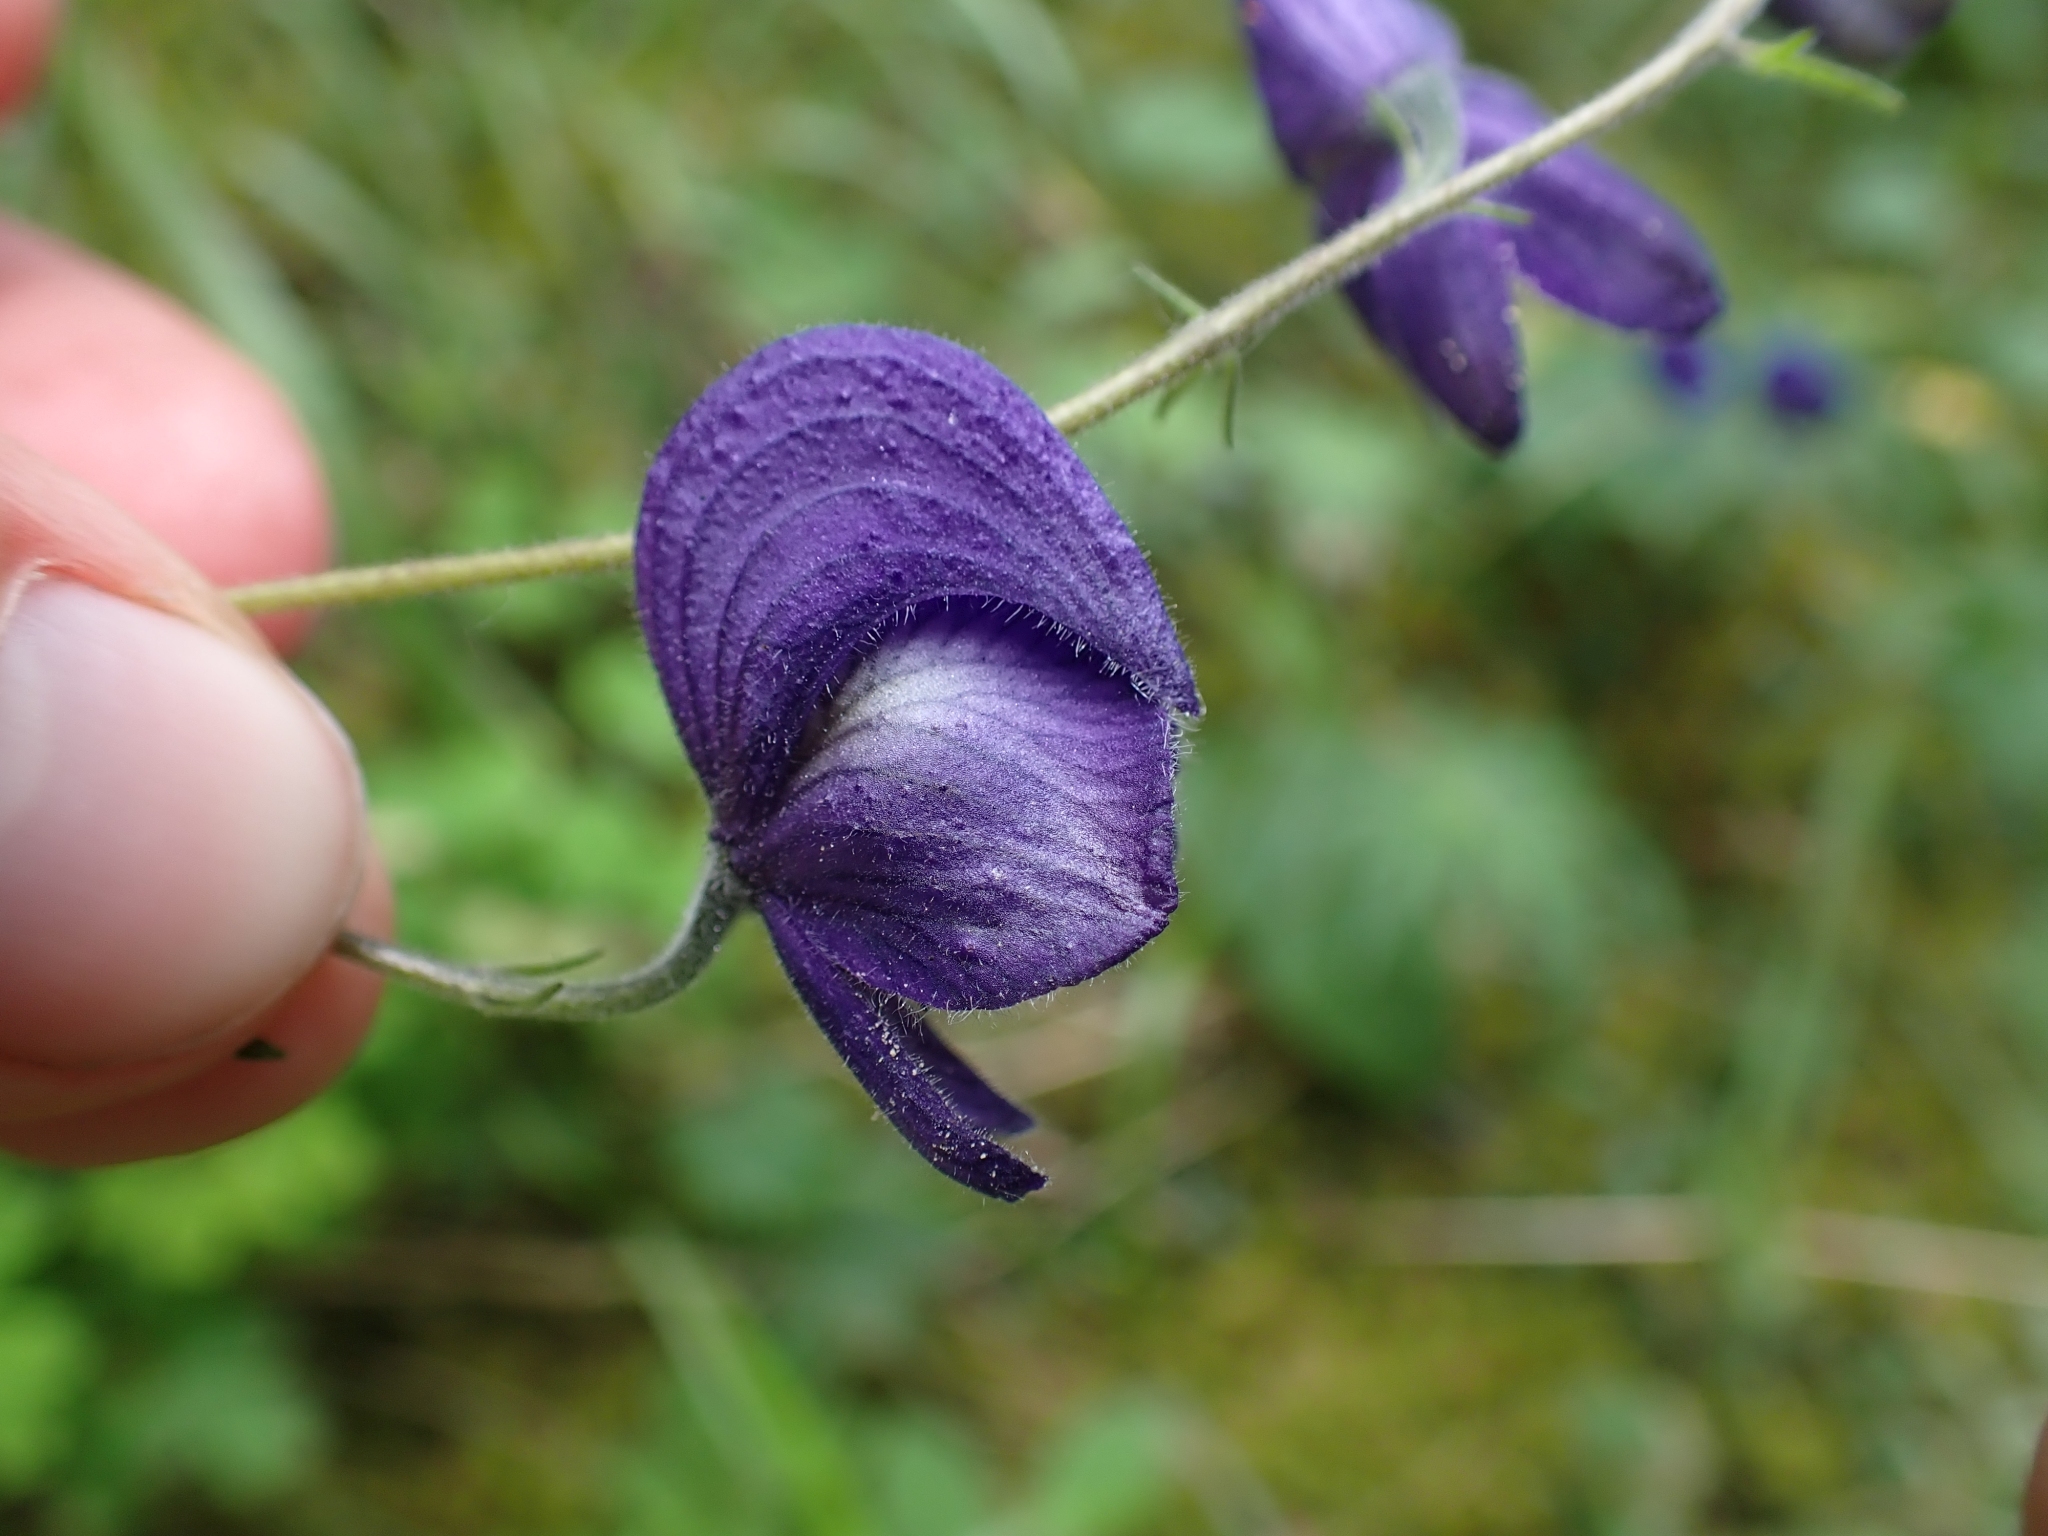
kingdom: Plantae
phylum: Tracheophyta
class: Magnoliopsida
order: Ranunculales
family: Ranunculaceae
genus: Aconitum
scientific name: Aconitum delphiniifolium
